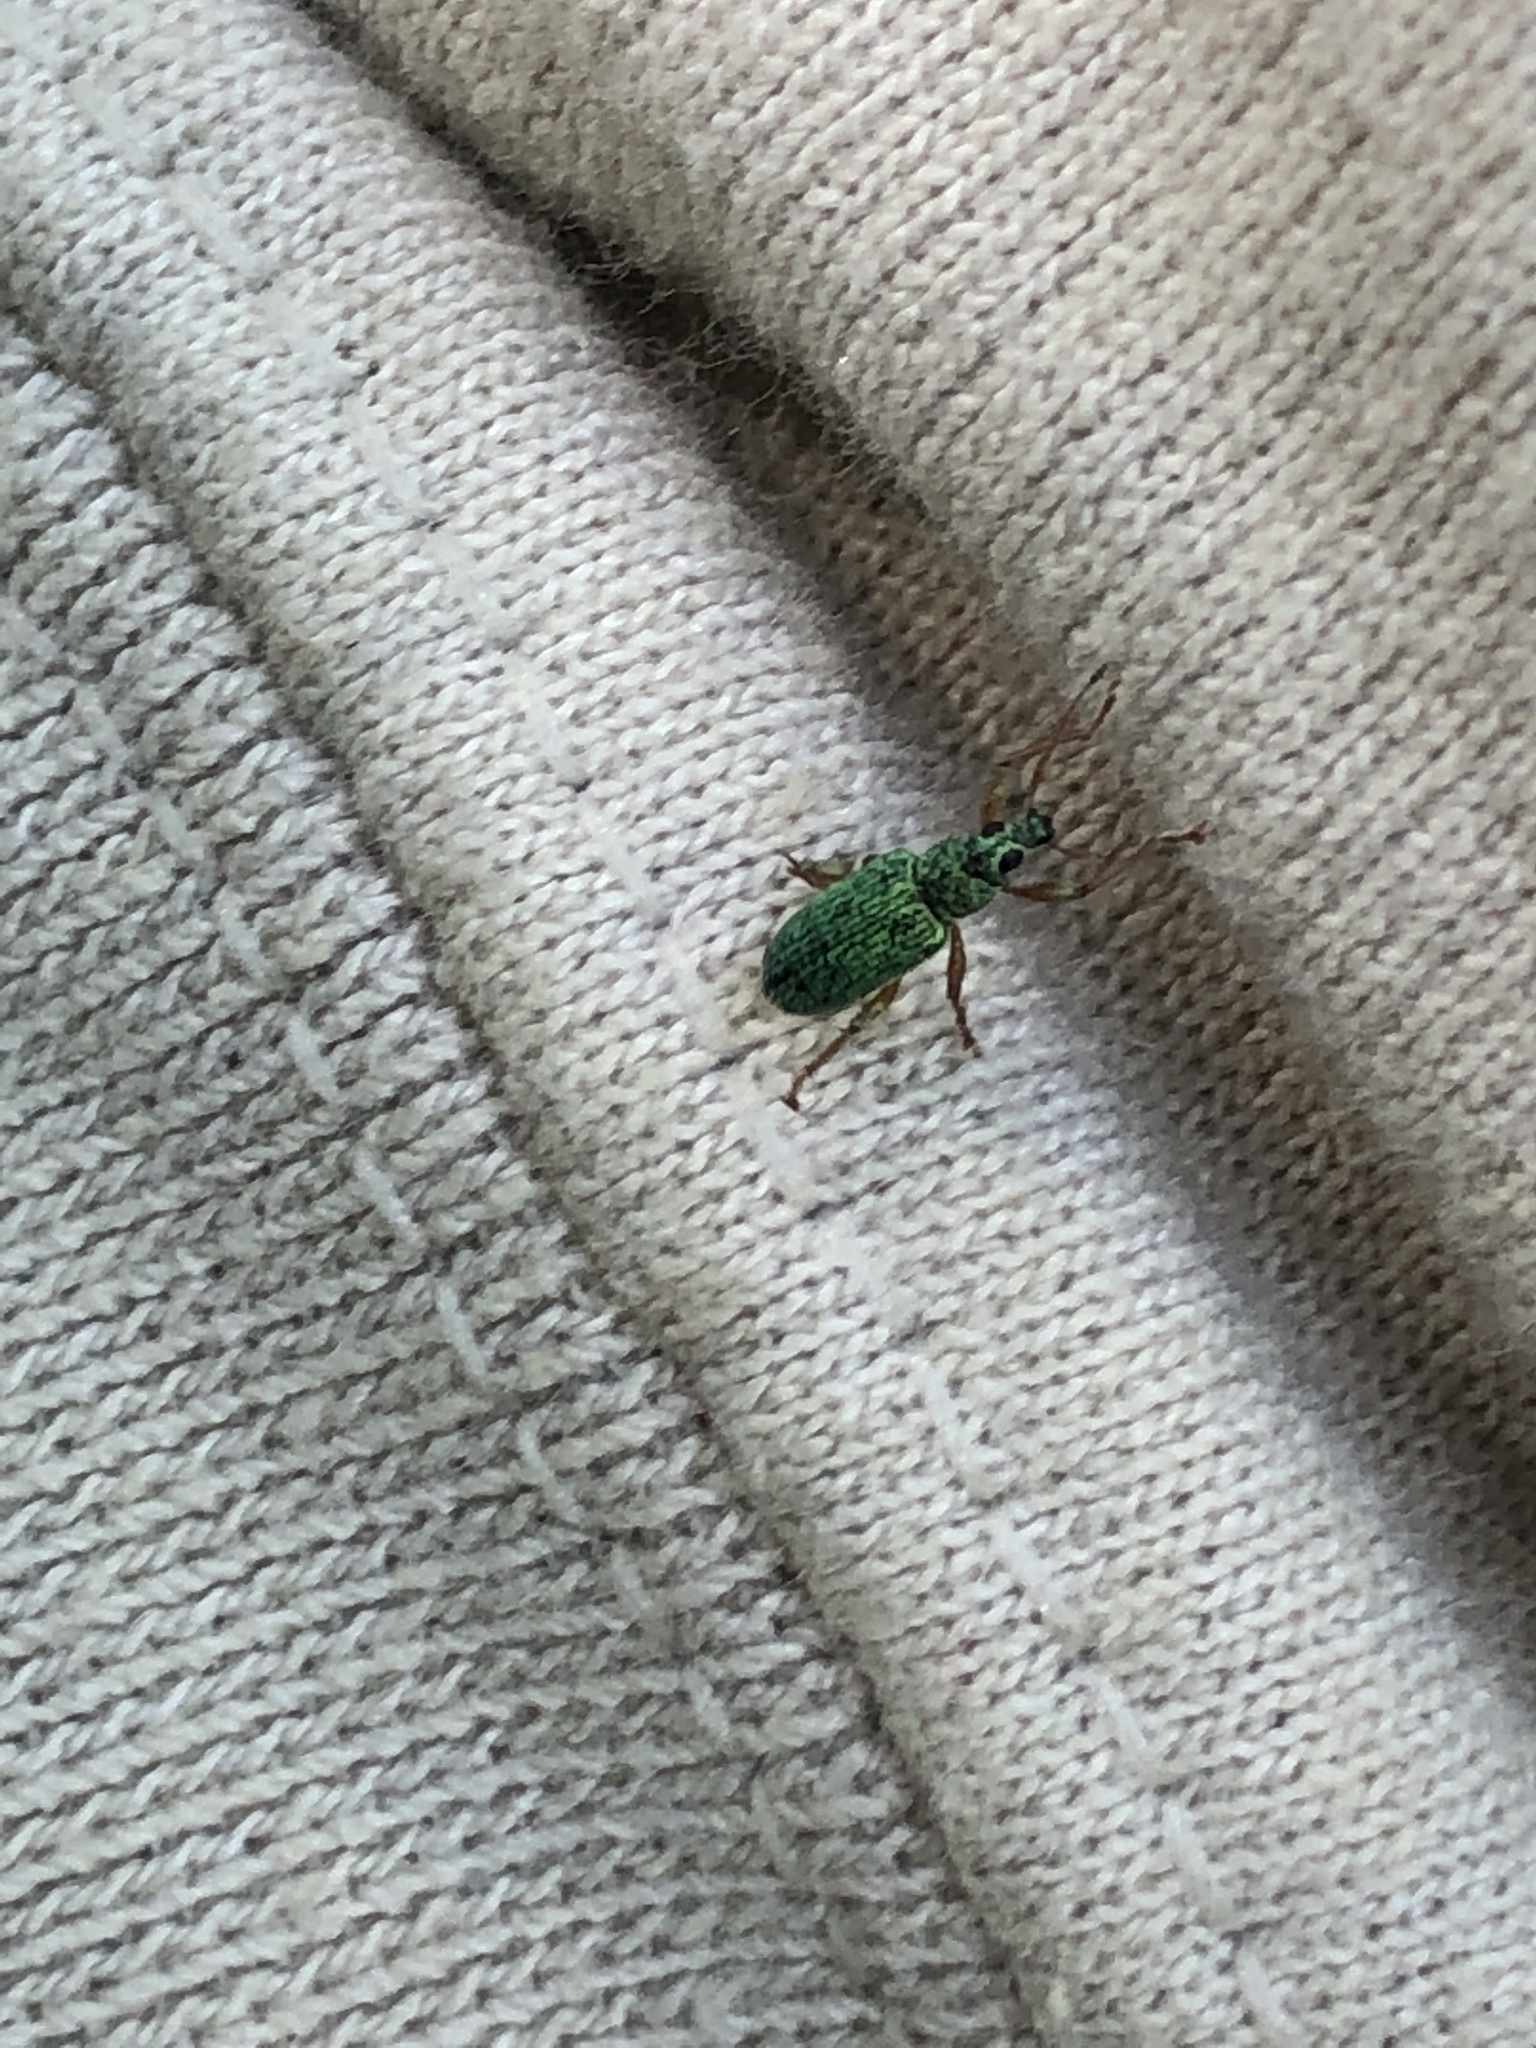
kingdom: Animalia
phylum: Arthropoda
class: Insecta
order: Coleoptera
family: Curculionidae
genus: Polydrusus
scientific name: Polydrusus formosus
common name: Weevil
